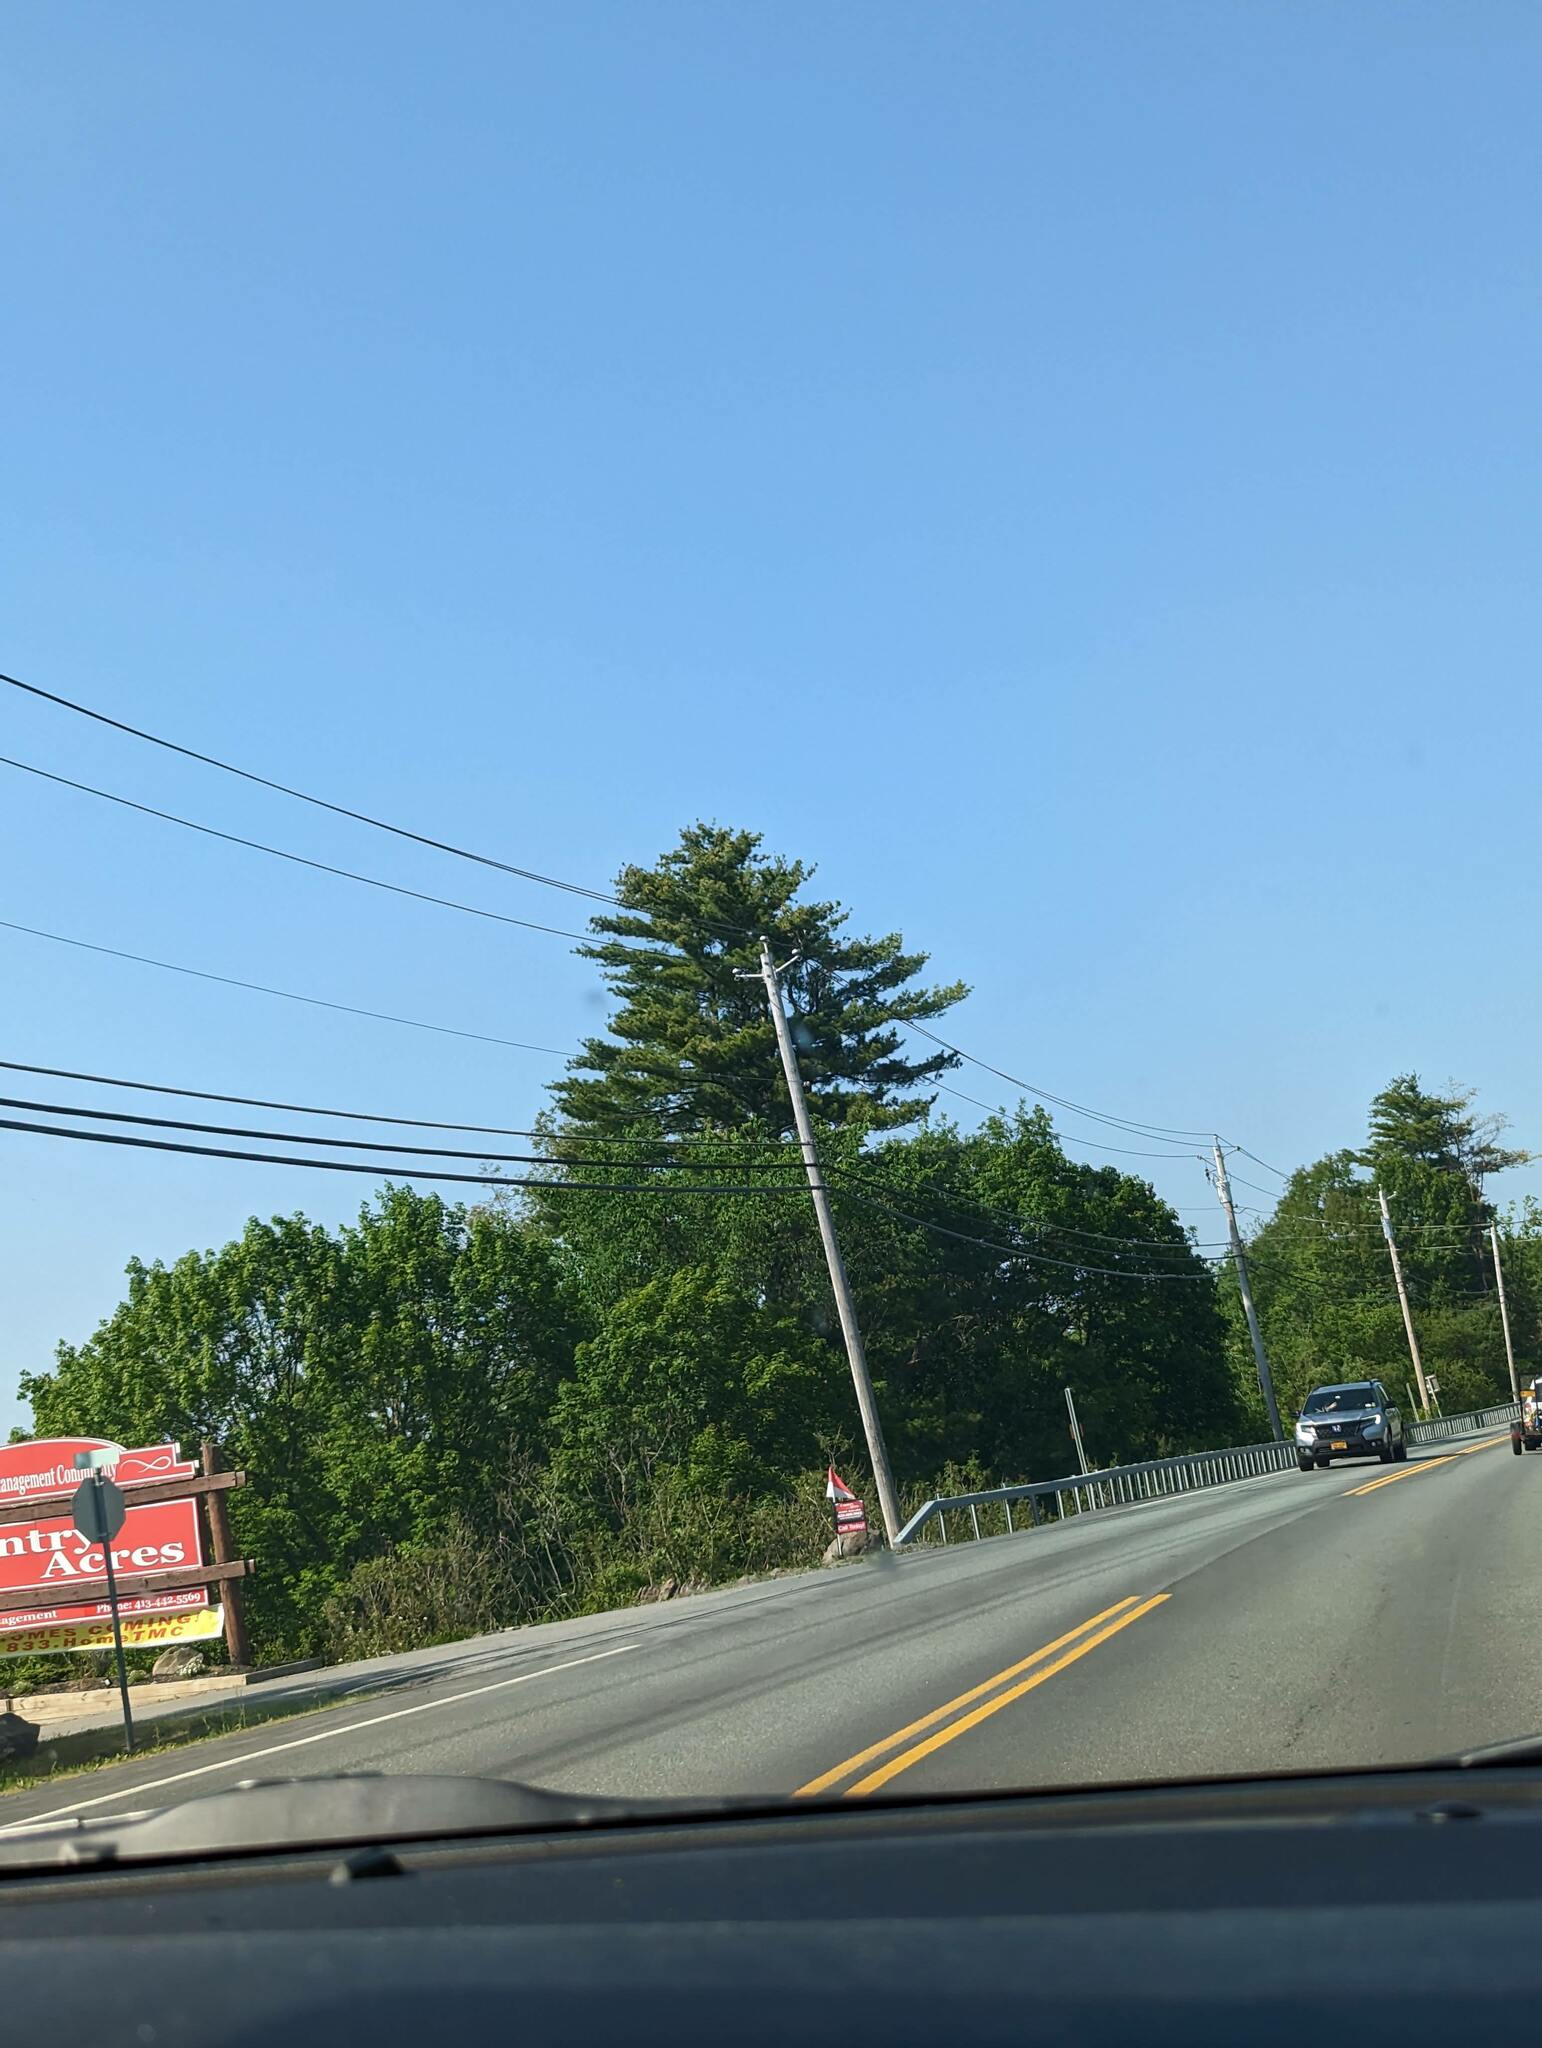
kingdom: Plantae
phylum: Tracheophyta
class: Pinopsida
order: Pinales
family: Pinaceae
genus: Pinus
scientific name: Pinus strobus
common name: Weymouth pine
